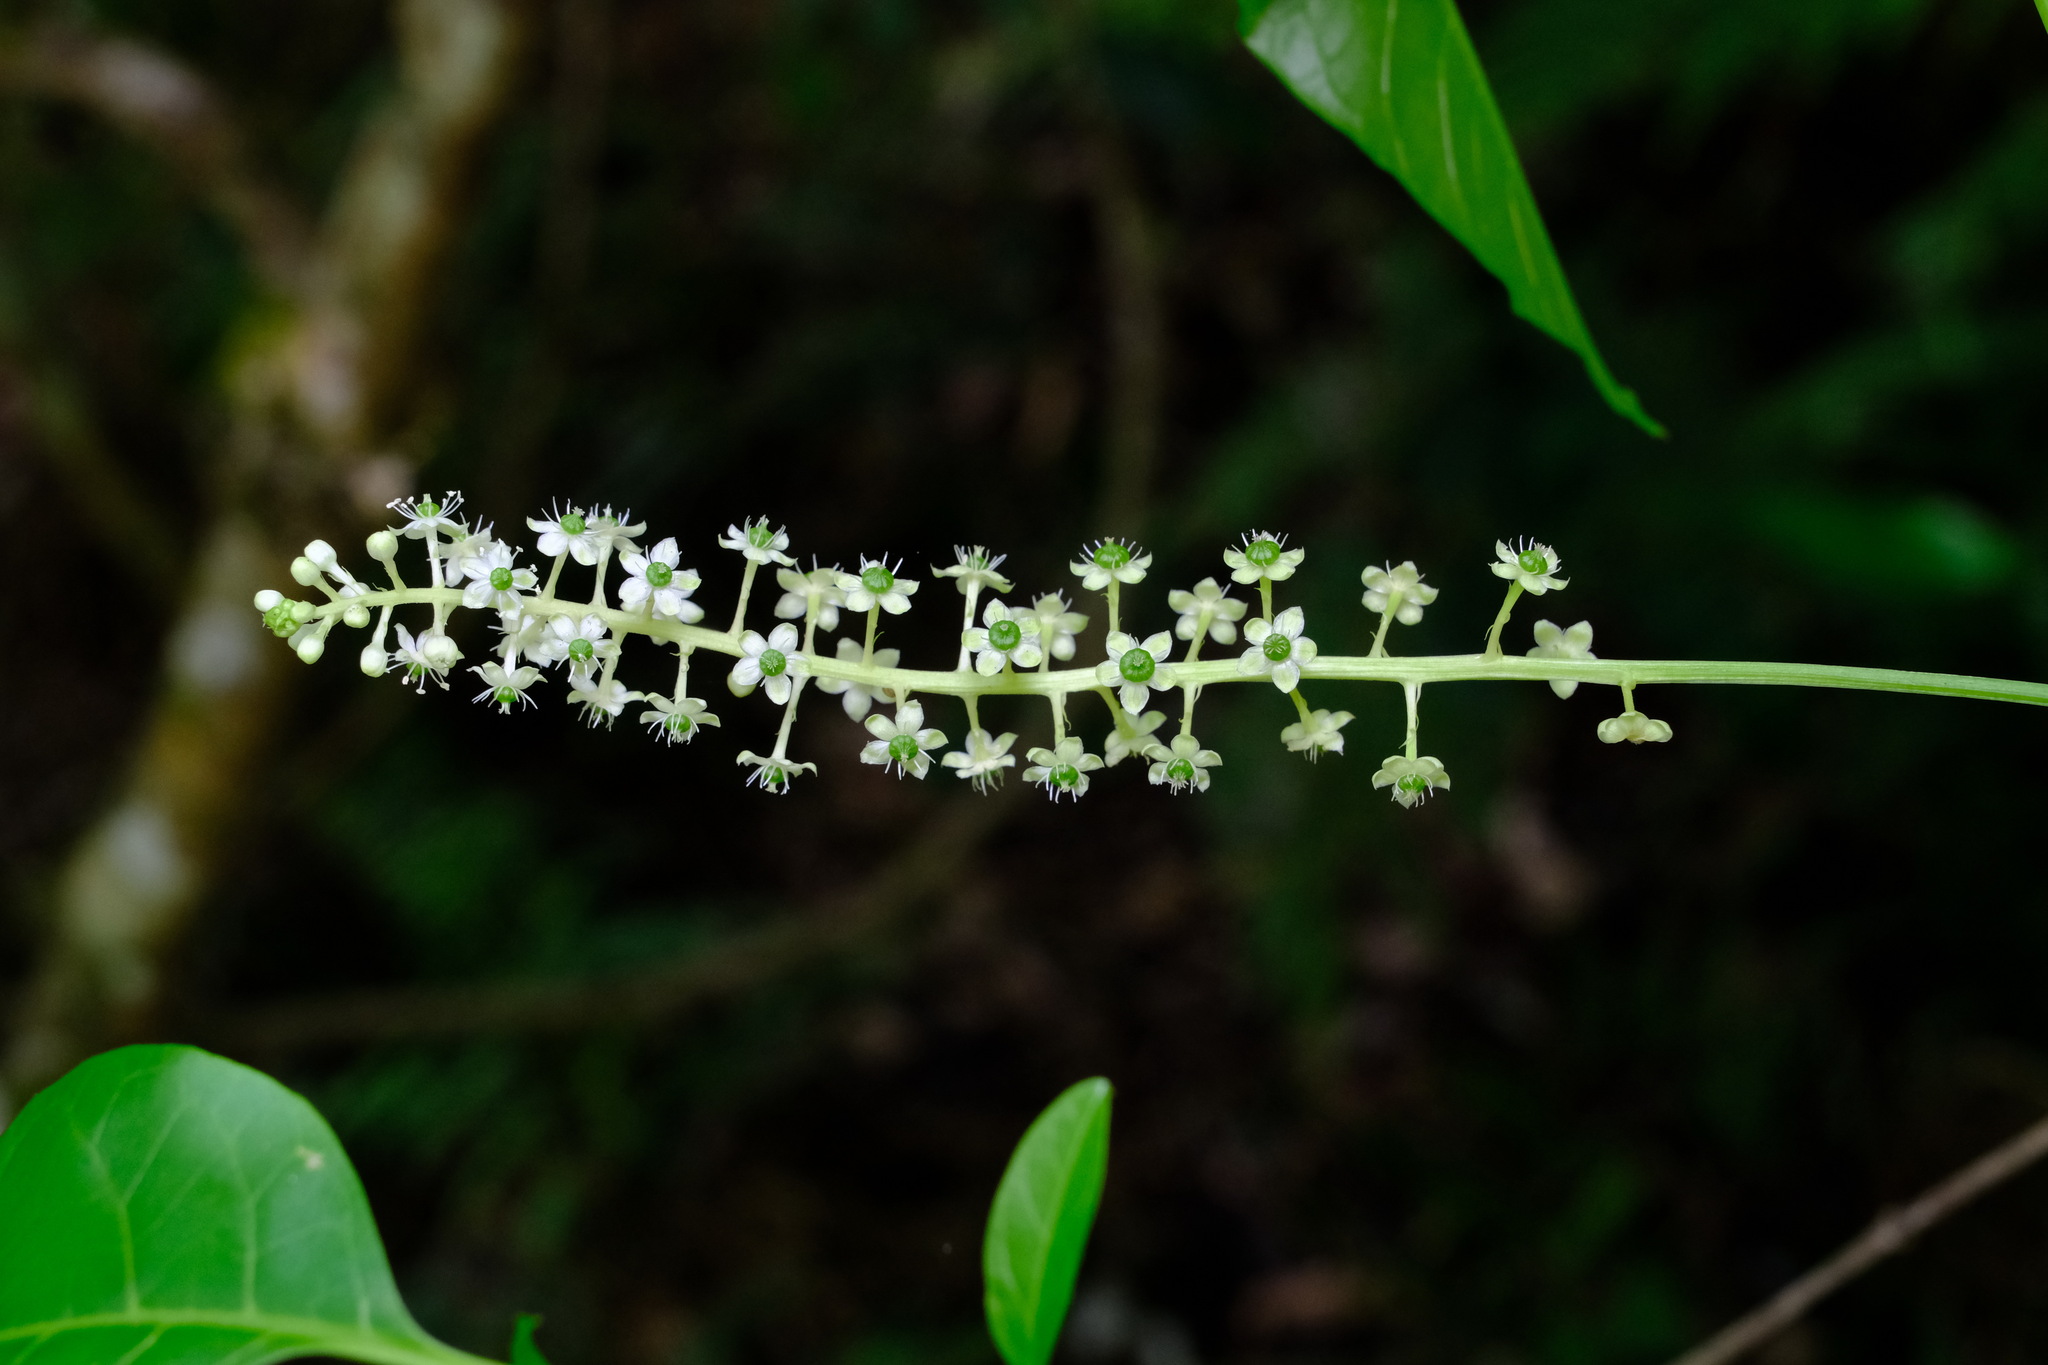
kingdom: Plantae
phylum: Tracheophyta
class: Magnoliopsida
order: Caryophyllales
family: Phytolaccaceae
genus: Phytolacca
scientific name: Phytolacca americana
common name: American pokeweed
